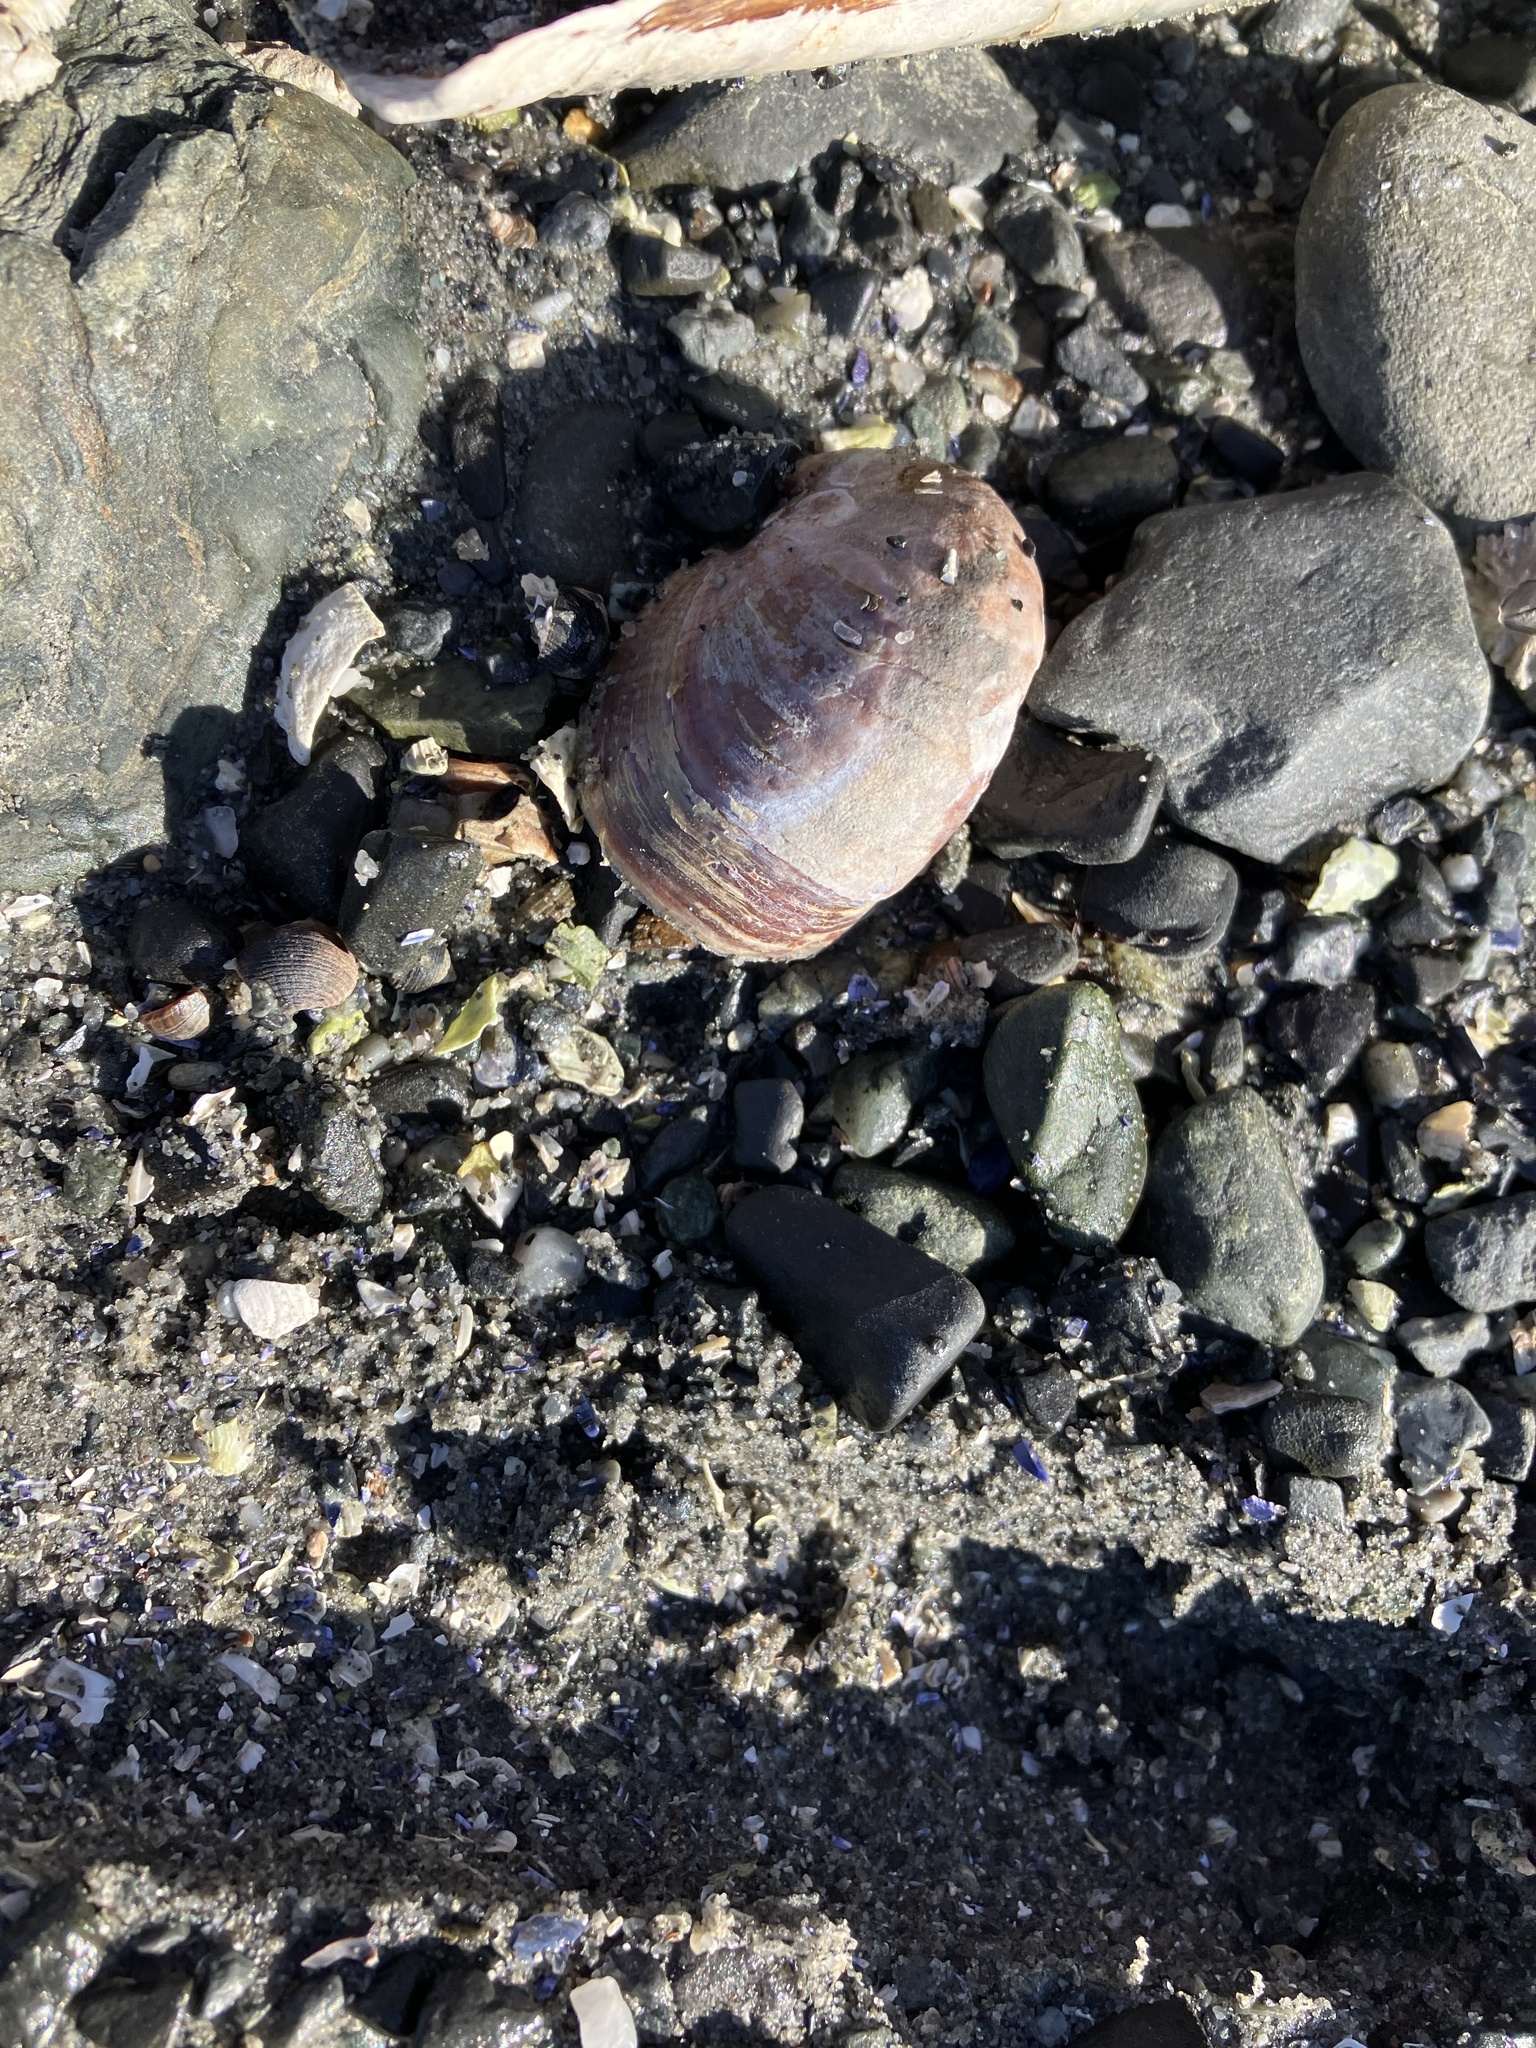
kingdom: Animalia
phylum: Mollusca
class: Gastropoda
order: Littorinimorpha
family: Calyptraeidae
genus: Crepidula
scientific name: Crepidula fornicata
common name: Slipper limpet
